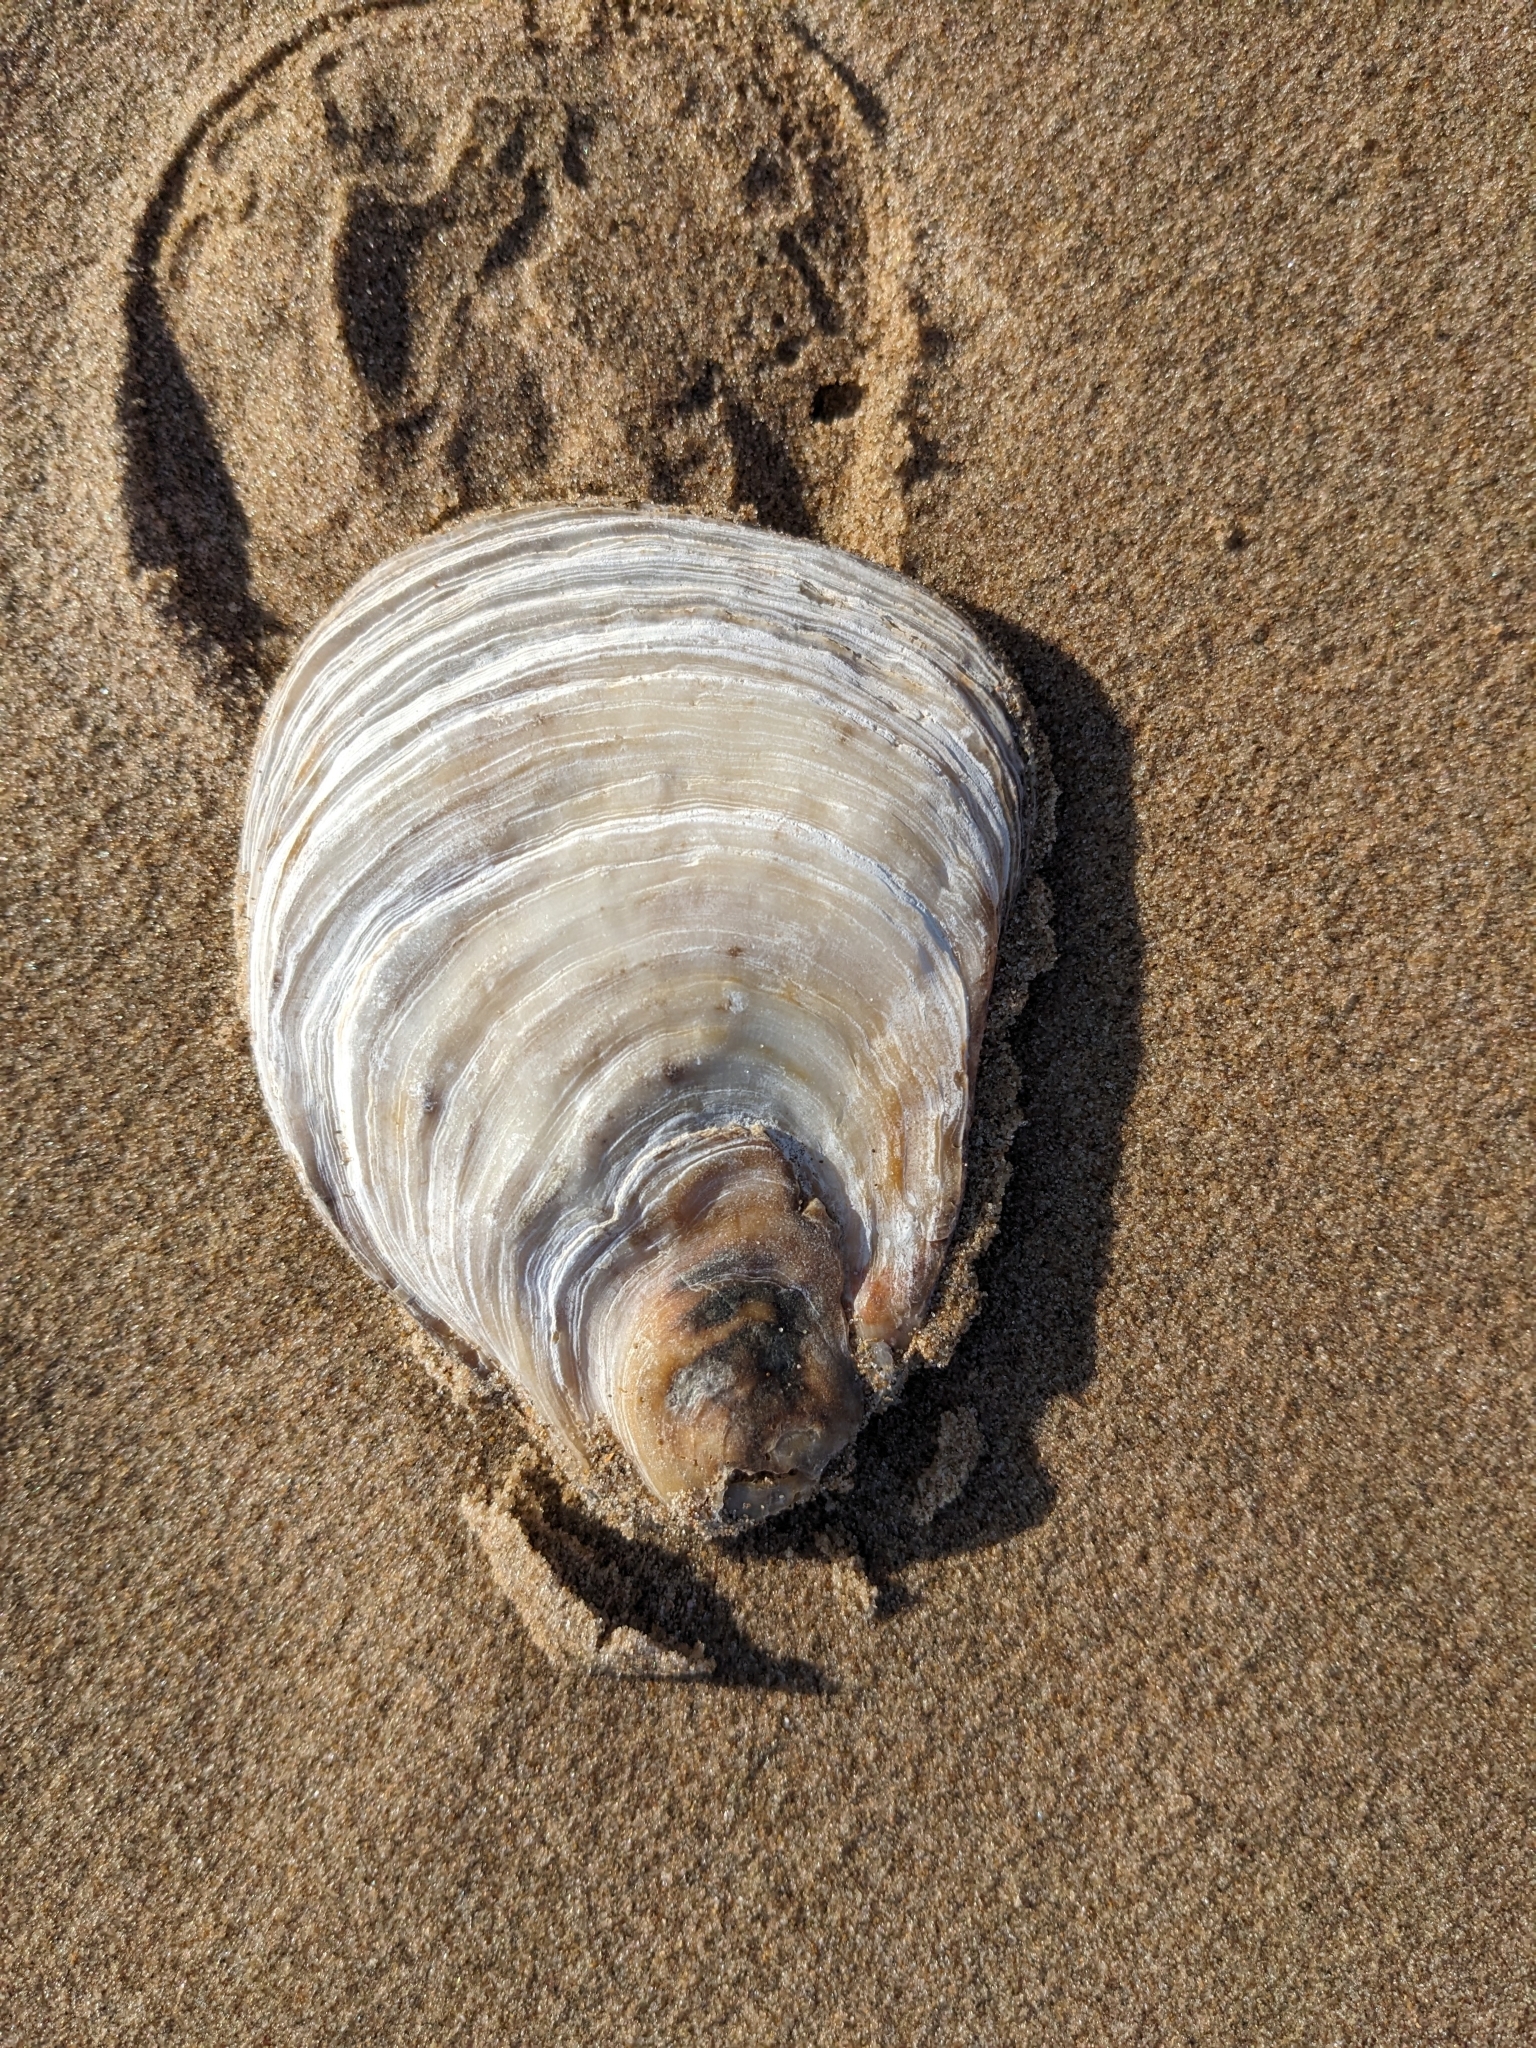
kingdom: Animalia
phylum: Mollusca
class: Bivalvia
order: Ostreida
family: Ostreidae
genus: Ostrea
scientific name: Ostrea edulis
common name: Flat oyster
